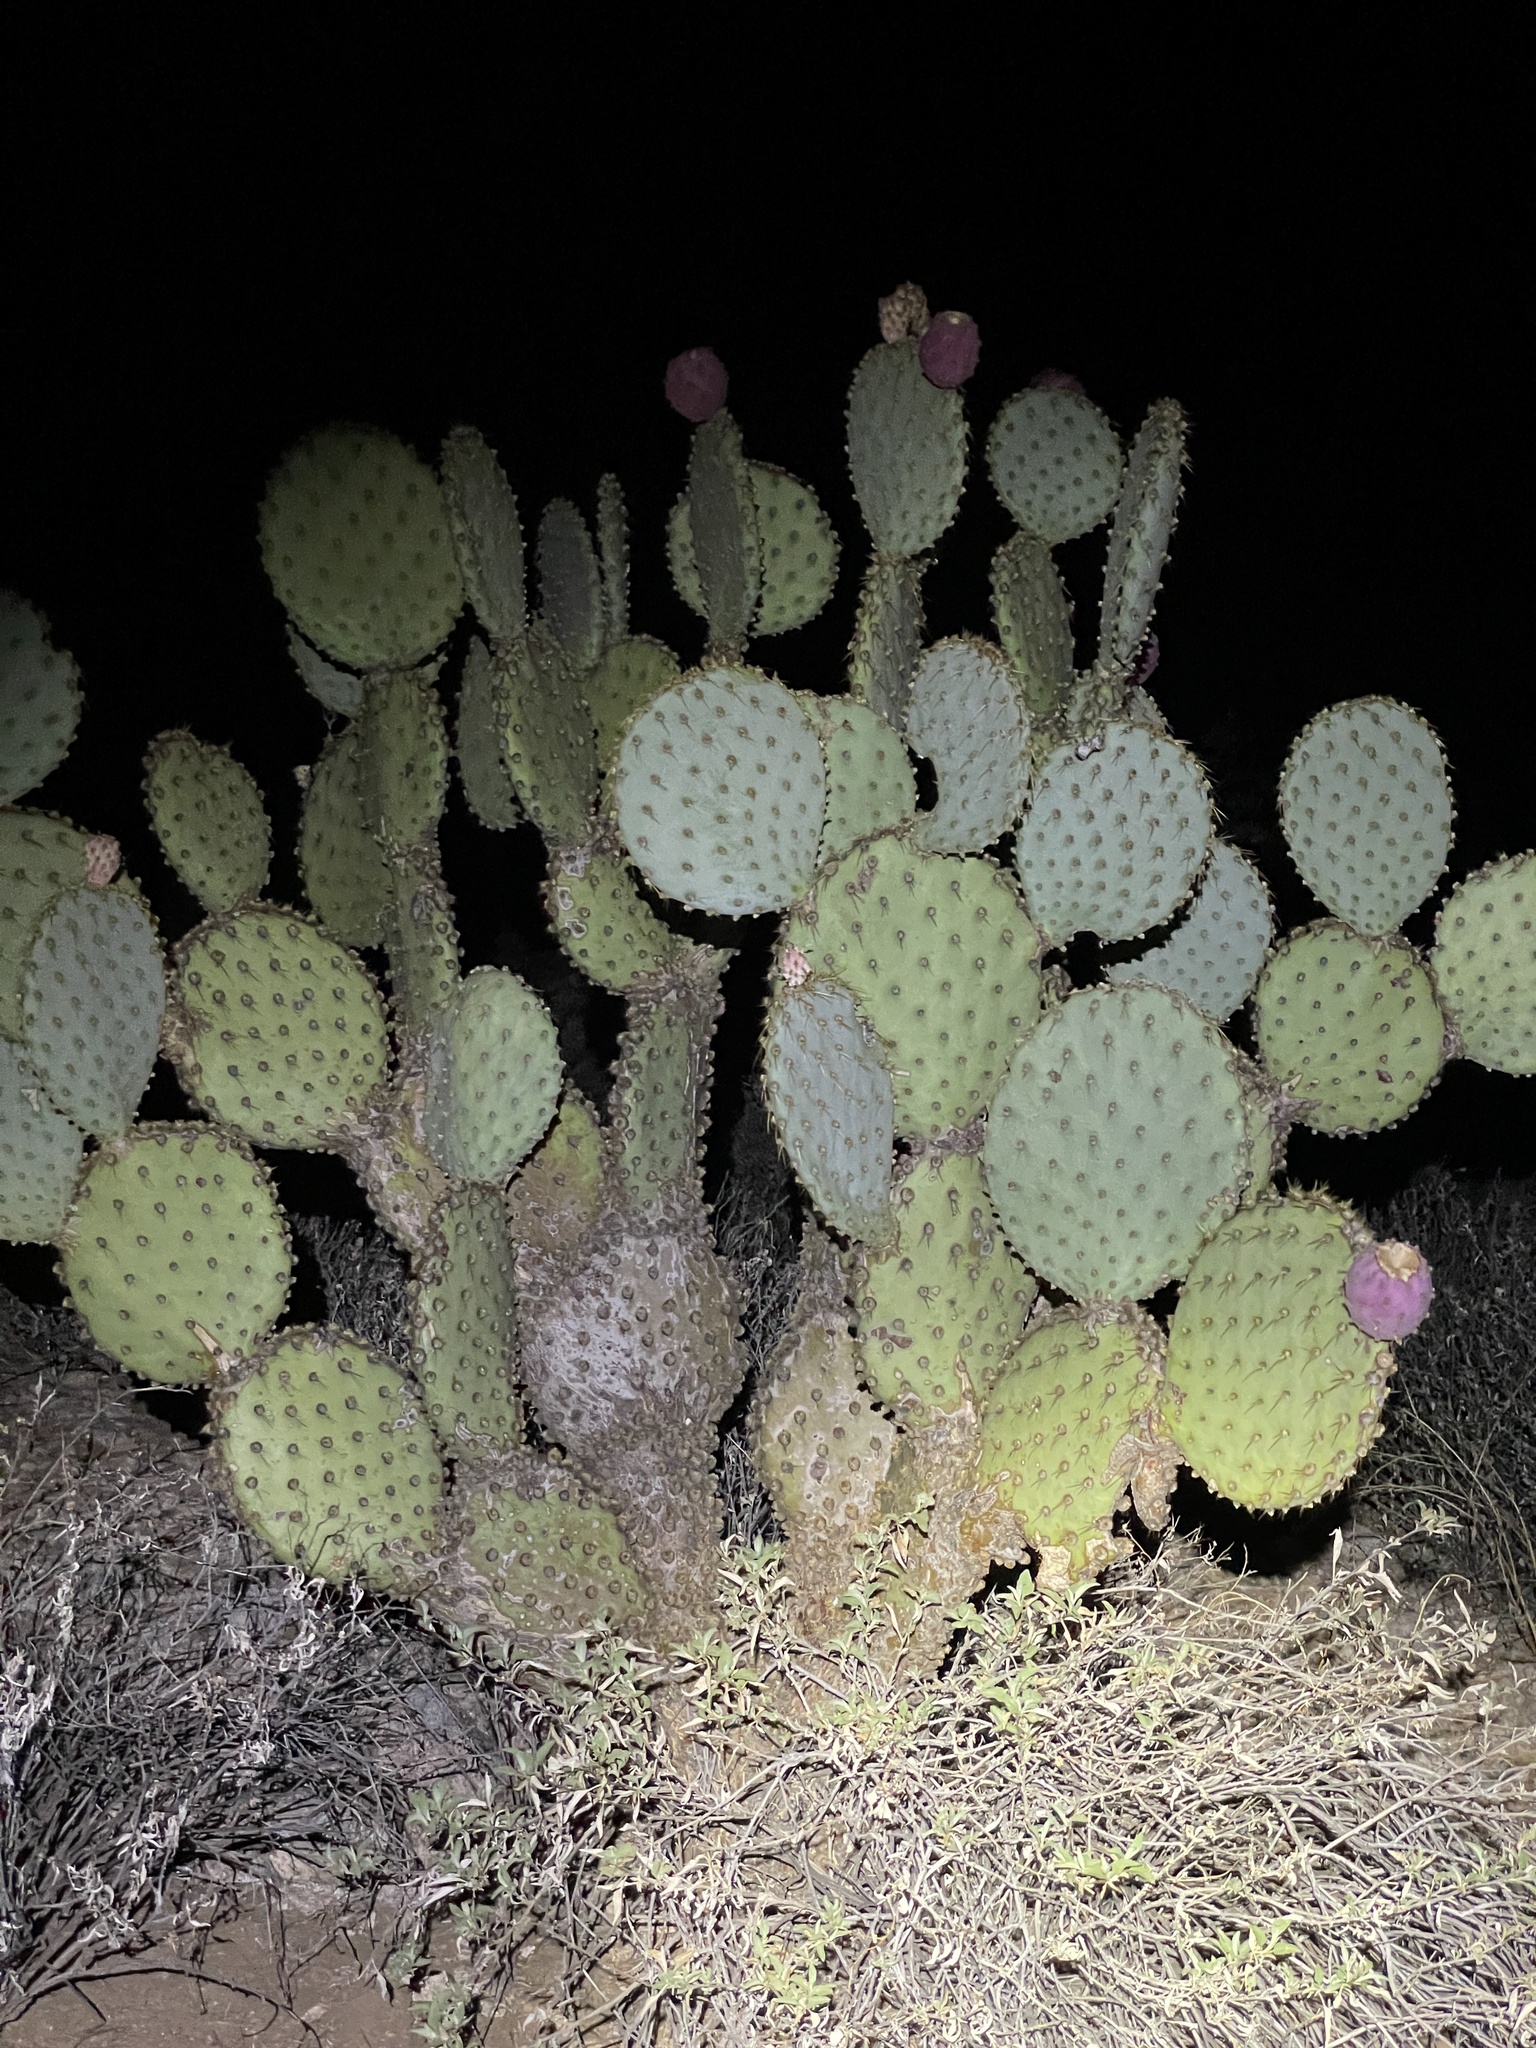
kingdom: Plantae
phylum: Tracheophyta
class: Magnoliopsida
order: Caryophyllales
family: Cactaceae
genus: Opuntia
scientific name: Opuntia chlorotica
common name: Dollar-joint prickly-pear
